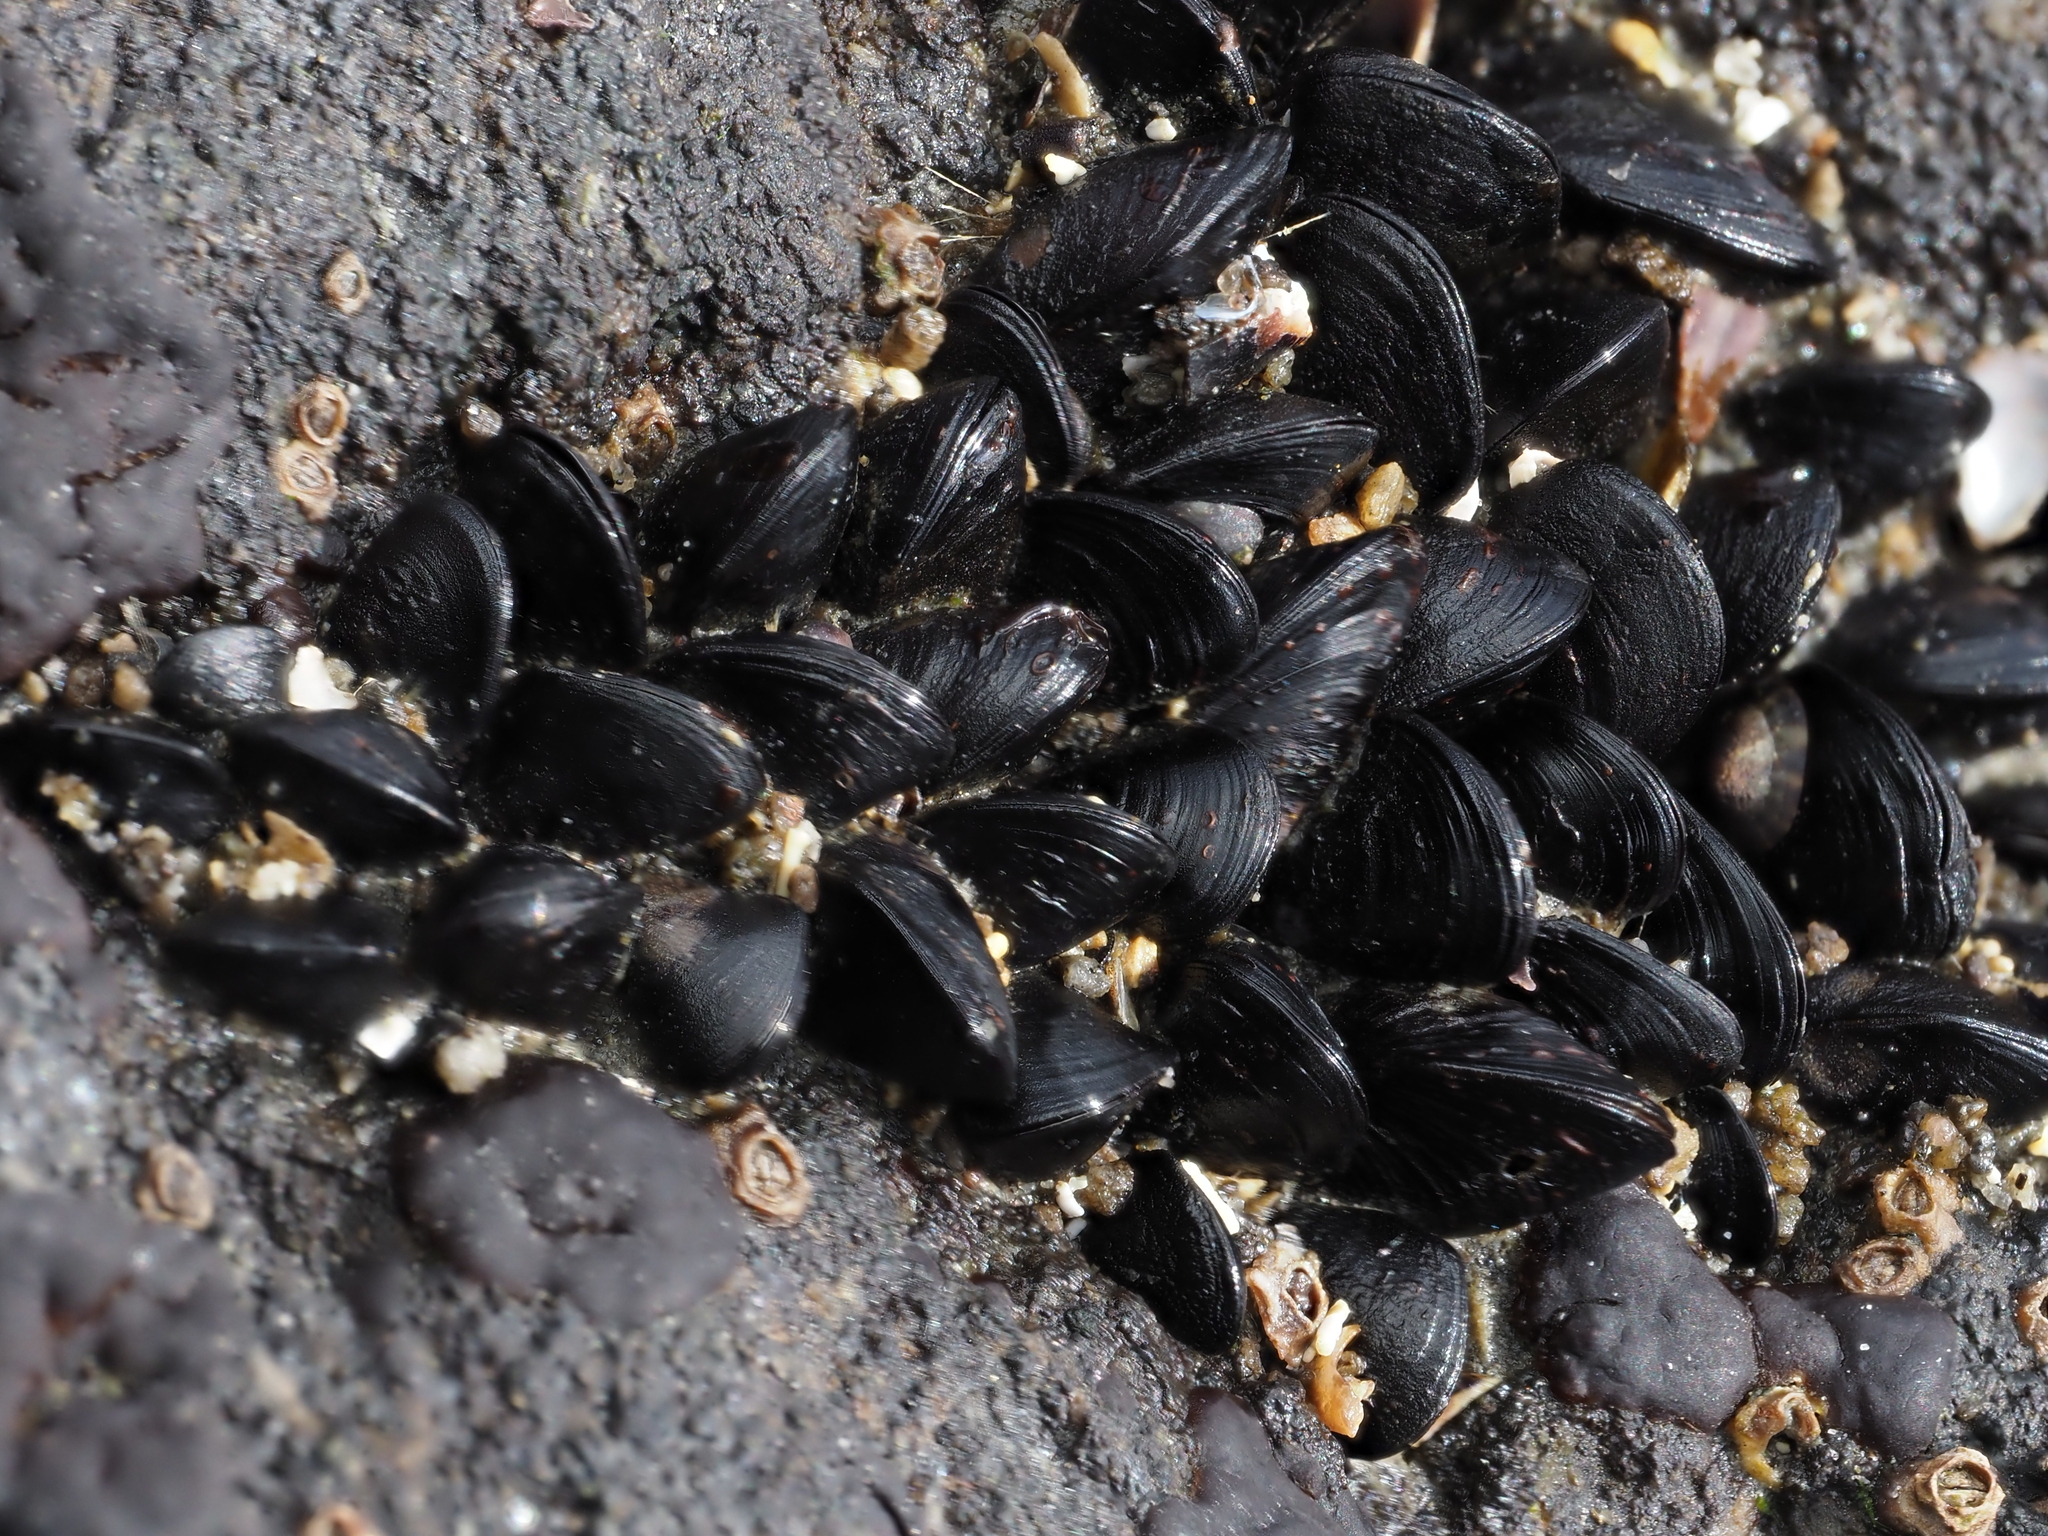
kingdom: Animalia
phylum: Mollusca
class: Bivalvia
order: Mytilida
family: Mytilidae
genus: Xenostrobus
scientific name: Xenostrobus neozelanicus
